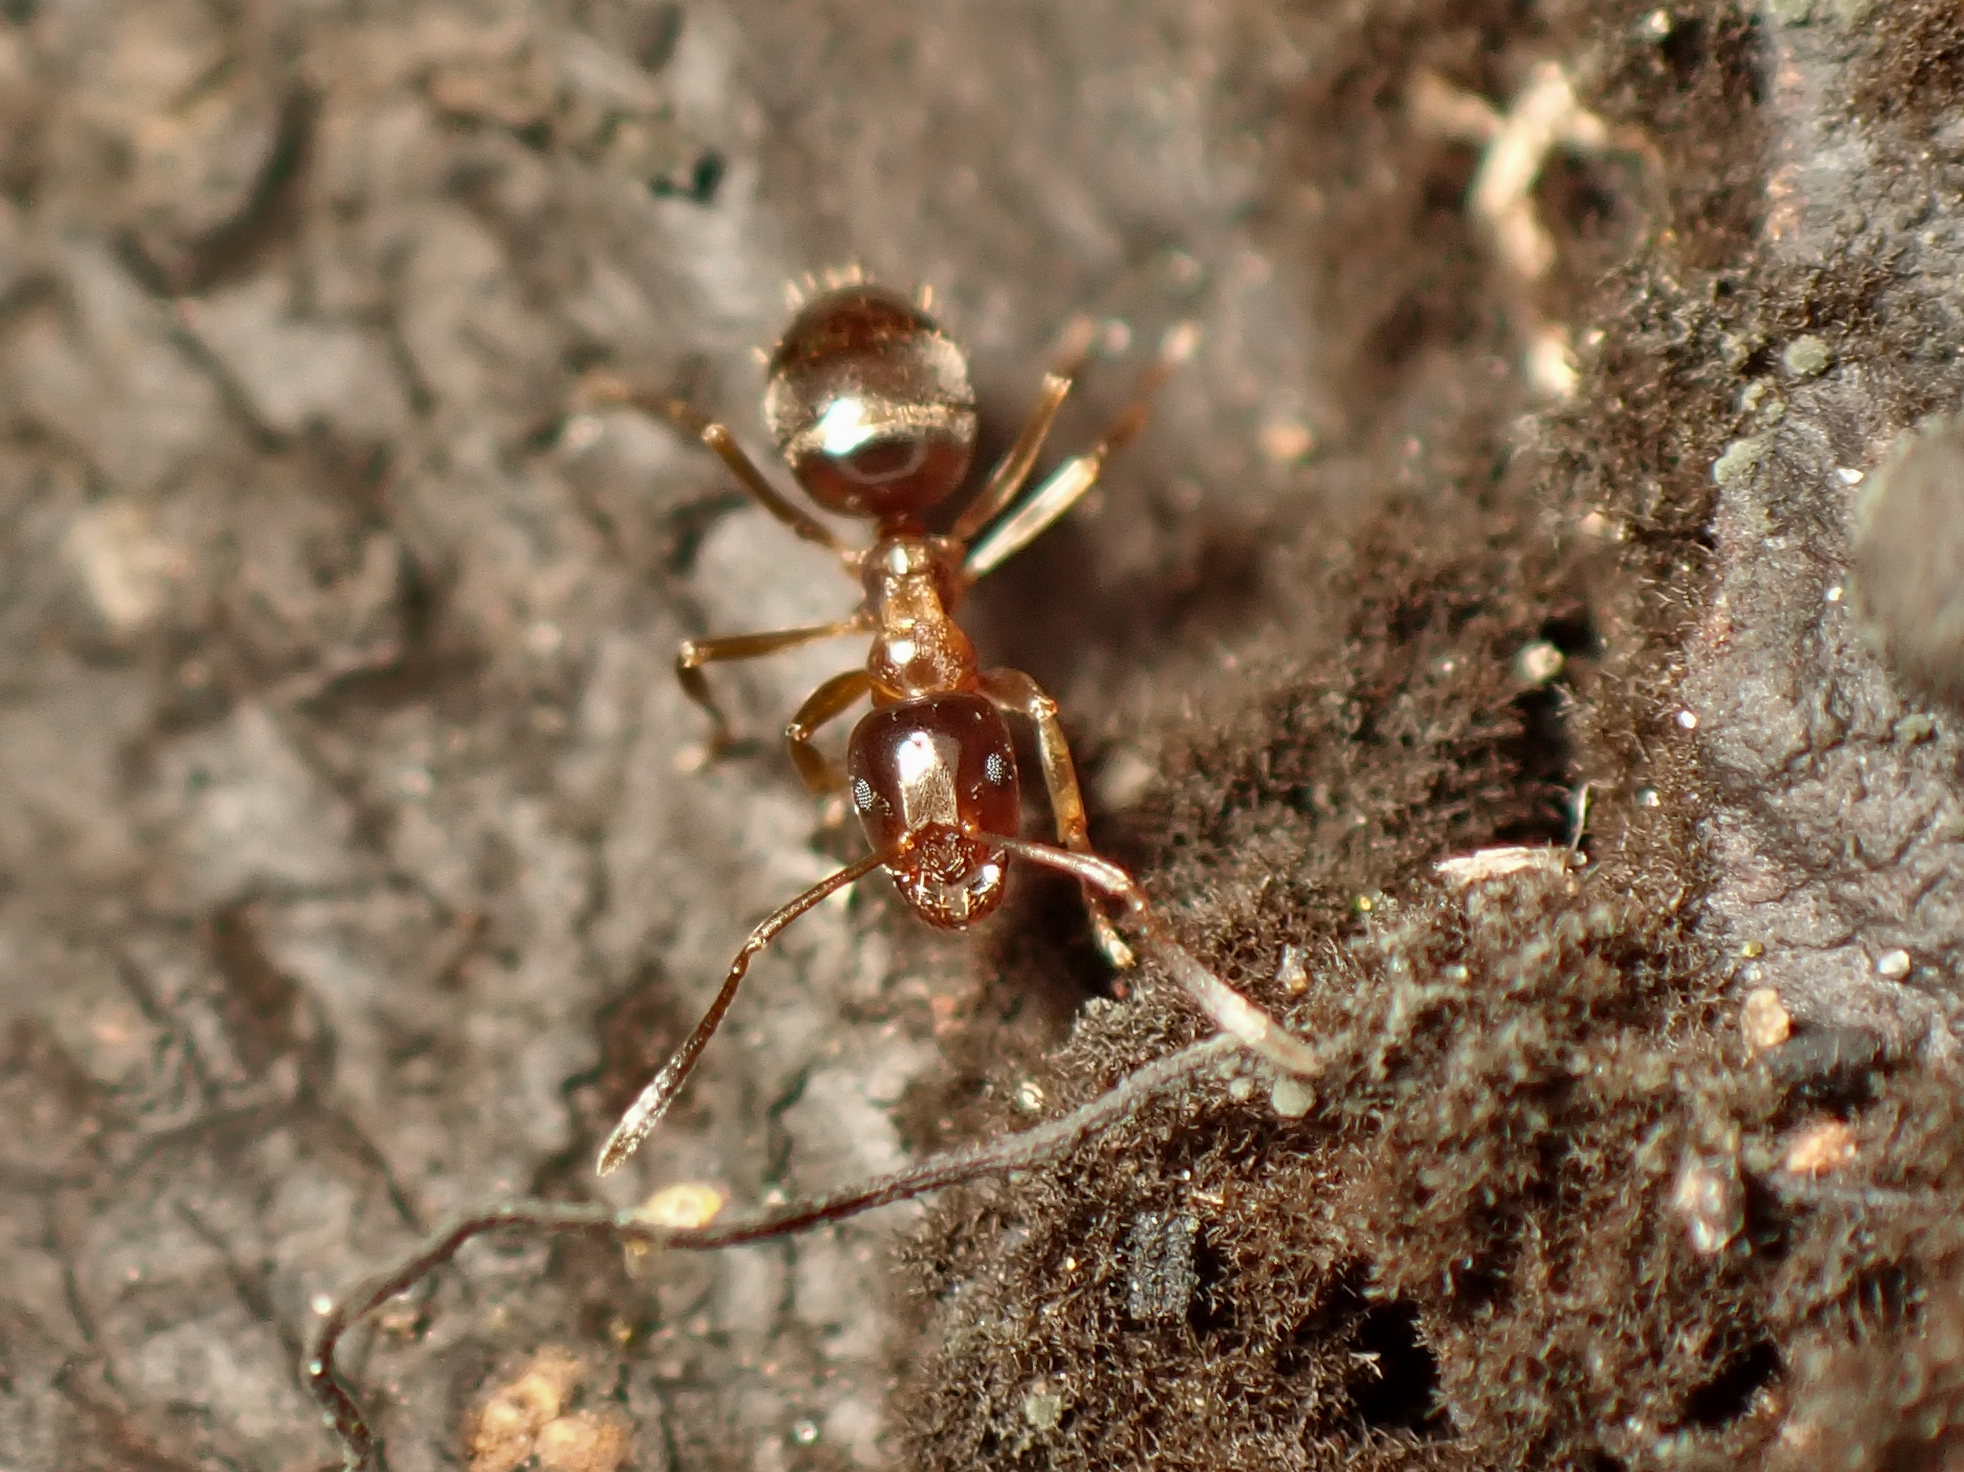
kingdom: Animalia
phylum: Arthropoda
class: Insecta
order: Hymenoptera
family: Formicidae
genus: Prolasius
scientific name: Prolasius advenus
